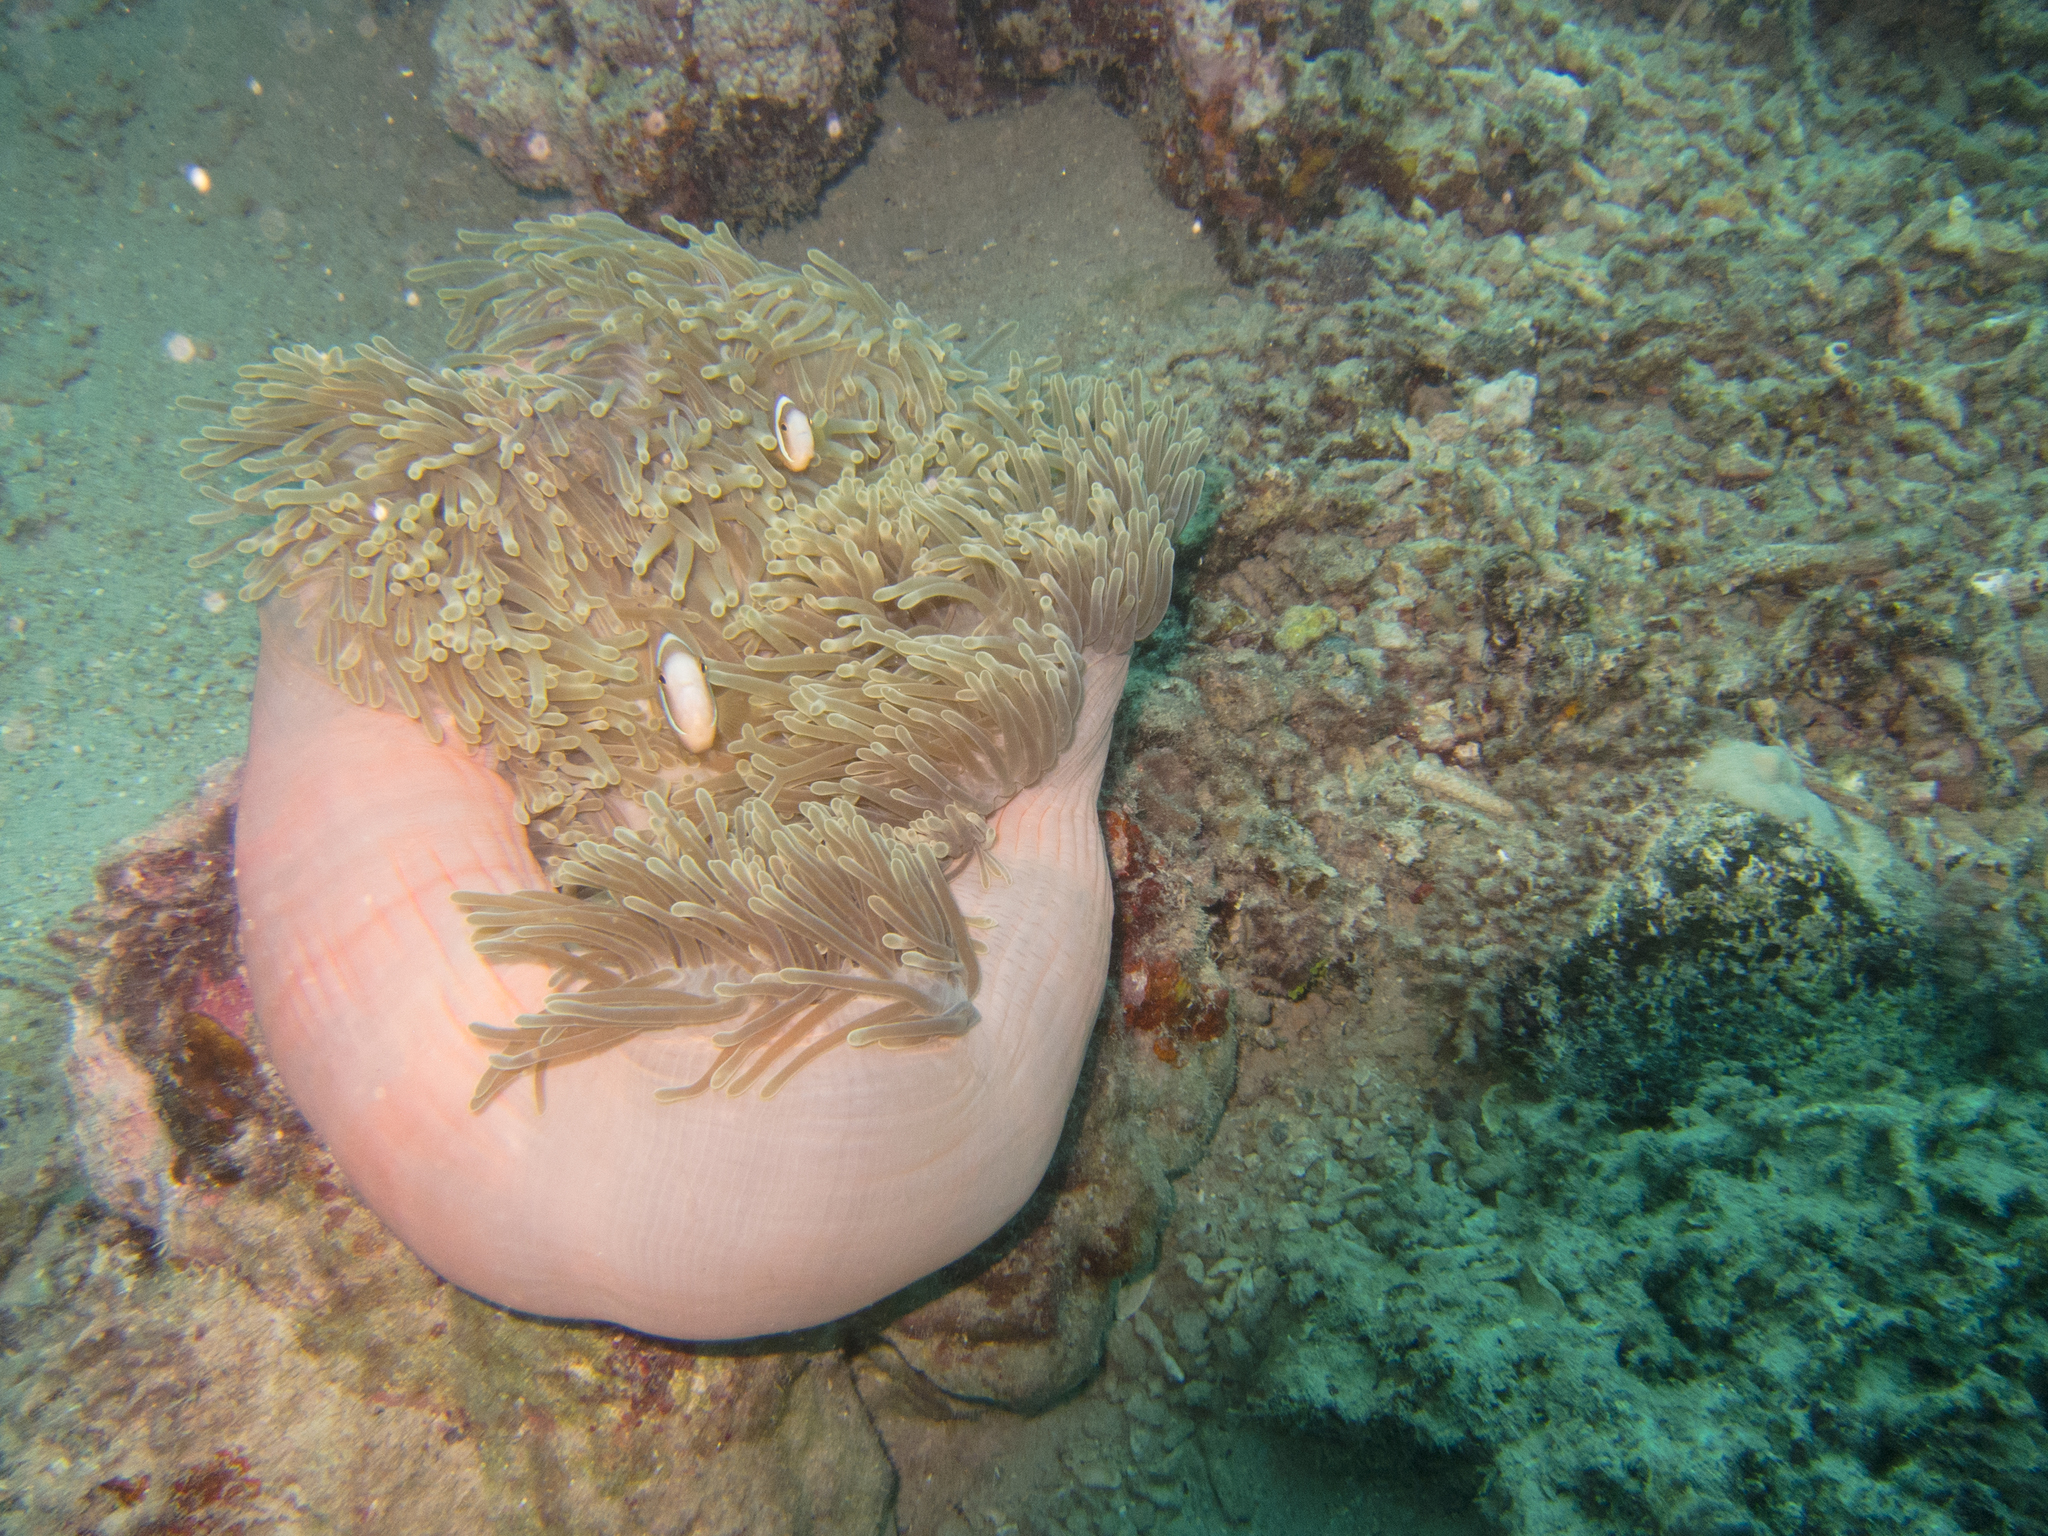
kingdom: Animalia
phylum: Chordata
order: Perciformes
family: Pomacentridae
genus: Amphiprion
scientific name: Amphiprion chrysopterus
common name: Orange-fin anemonefish
